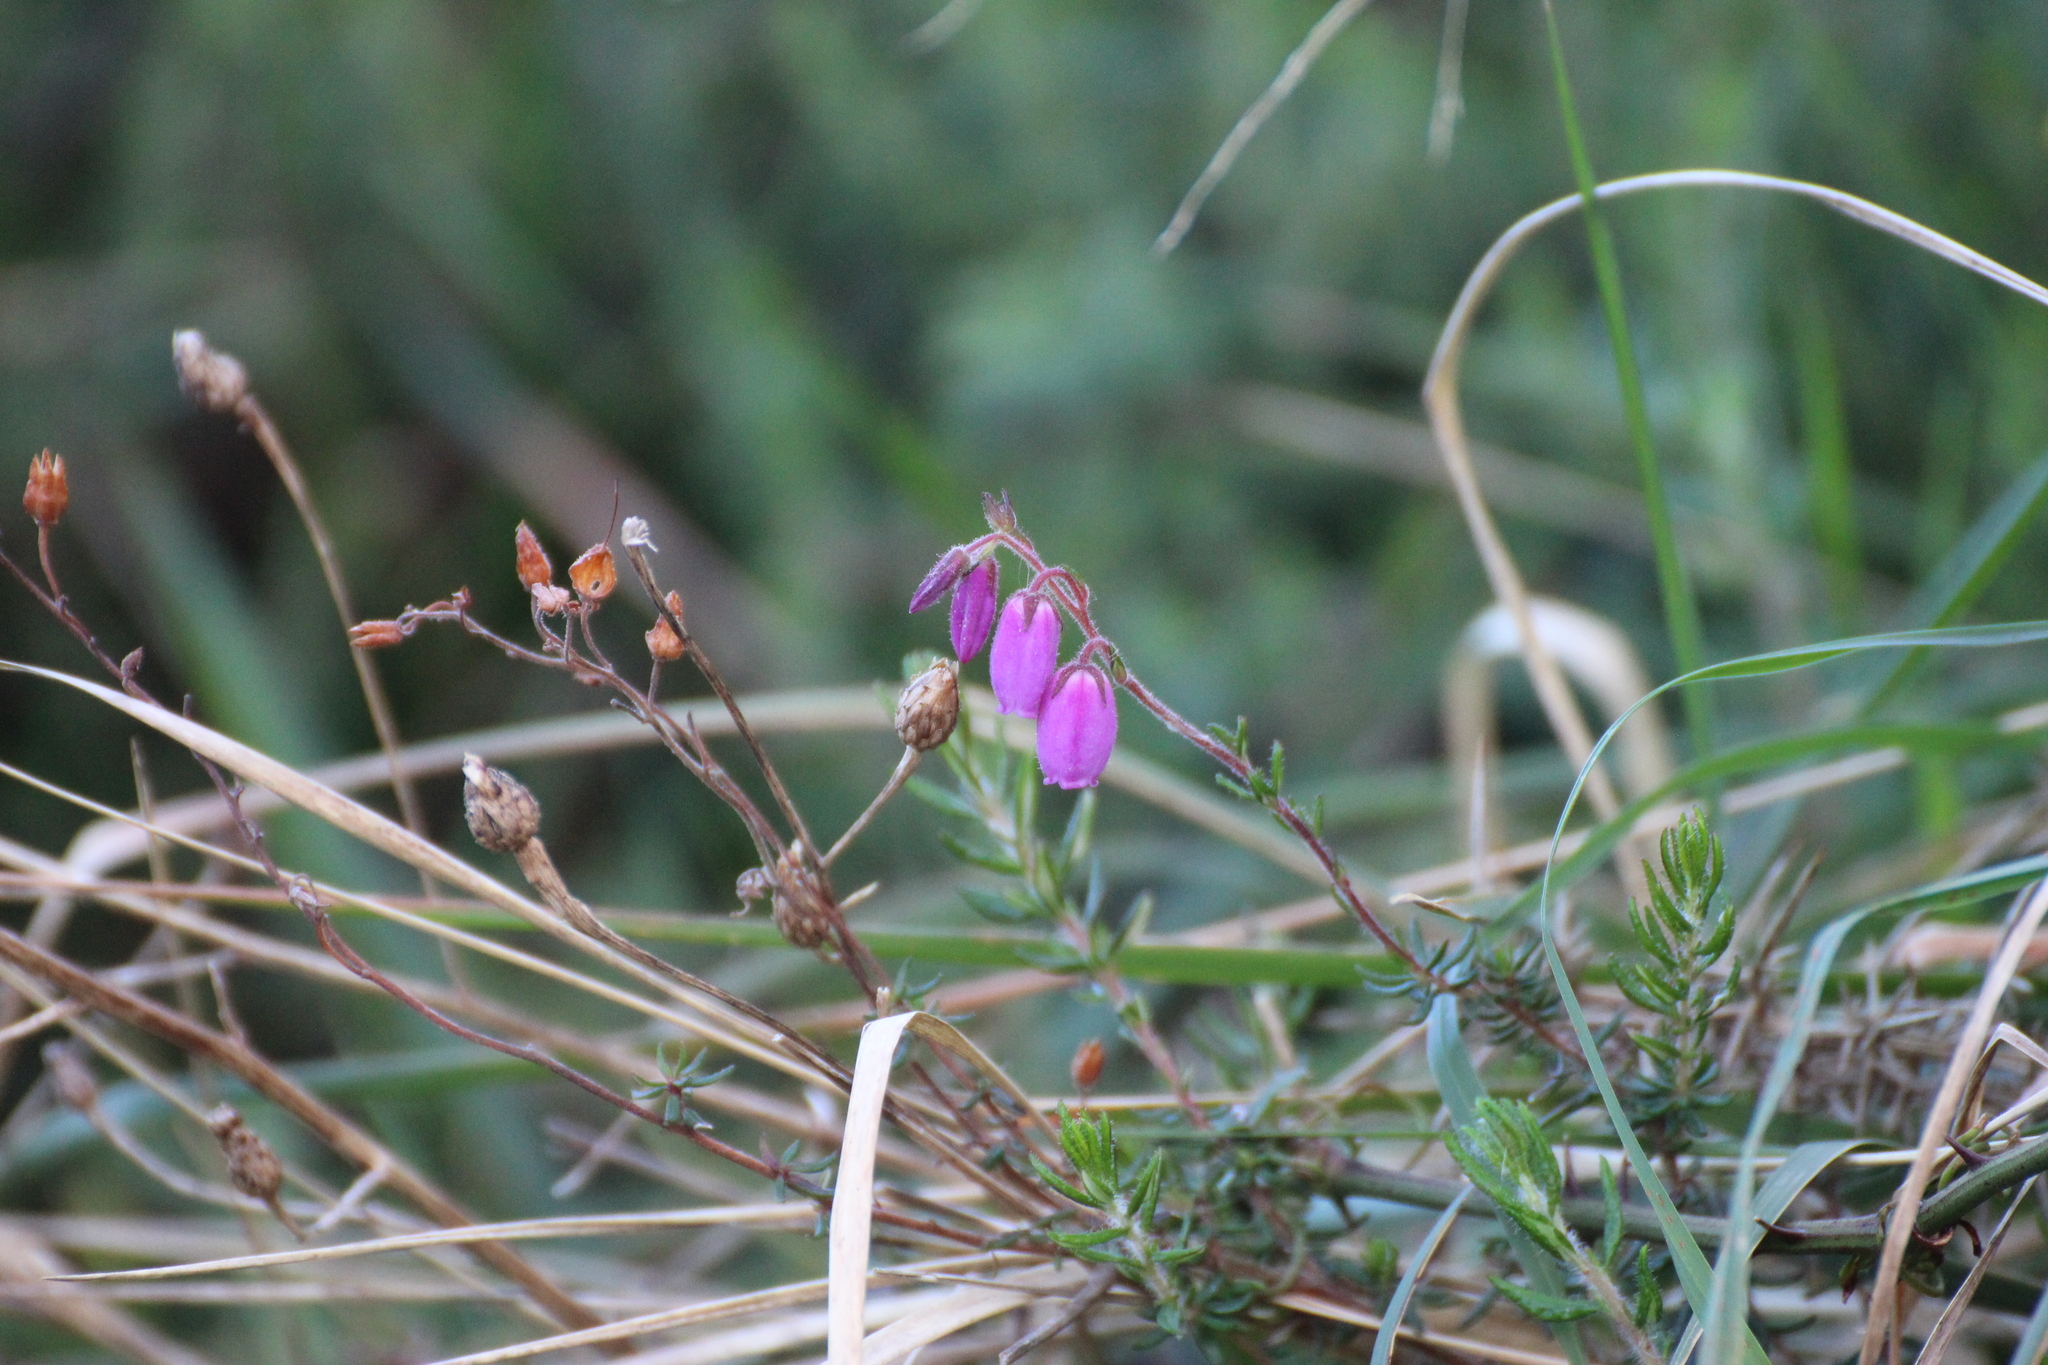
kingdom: Plantae
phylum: Tracheophyta
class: Magnoliopsida
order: Ericales
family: Ericaceae
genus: Daboecia
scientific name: Daboecia cantabrica
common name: St. dabeoc's-heath
